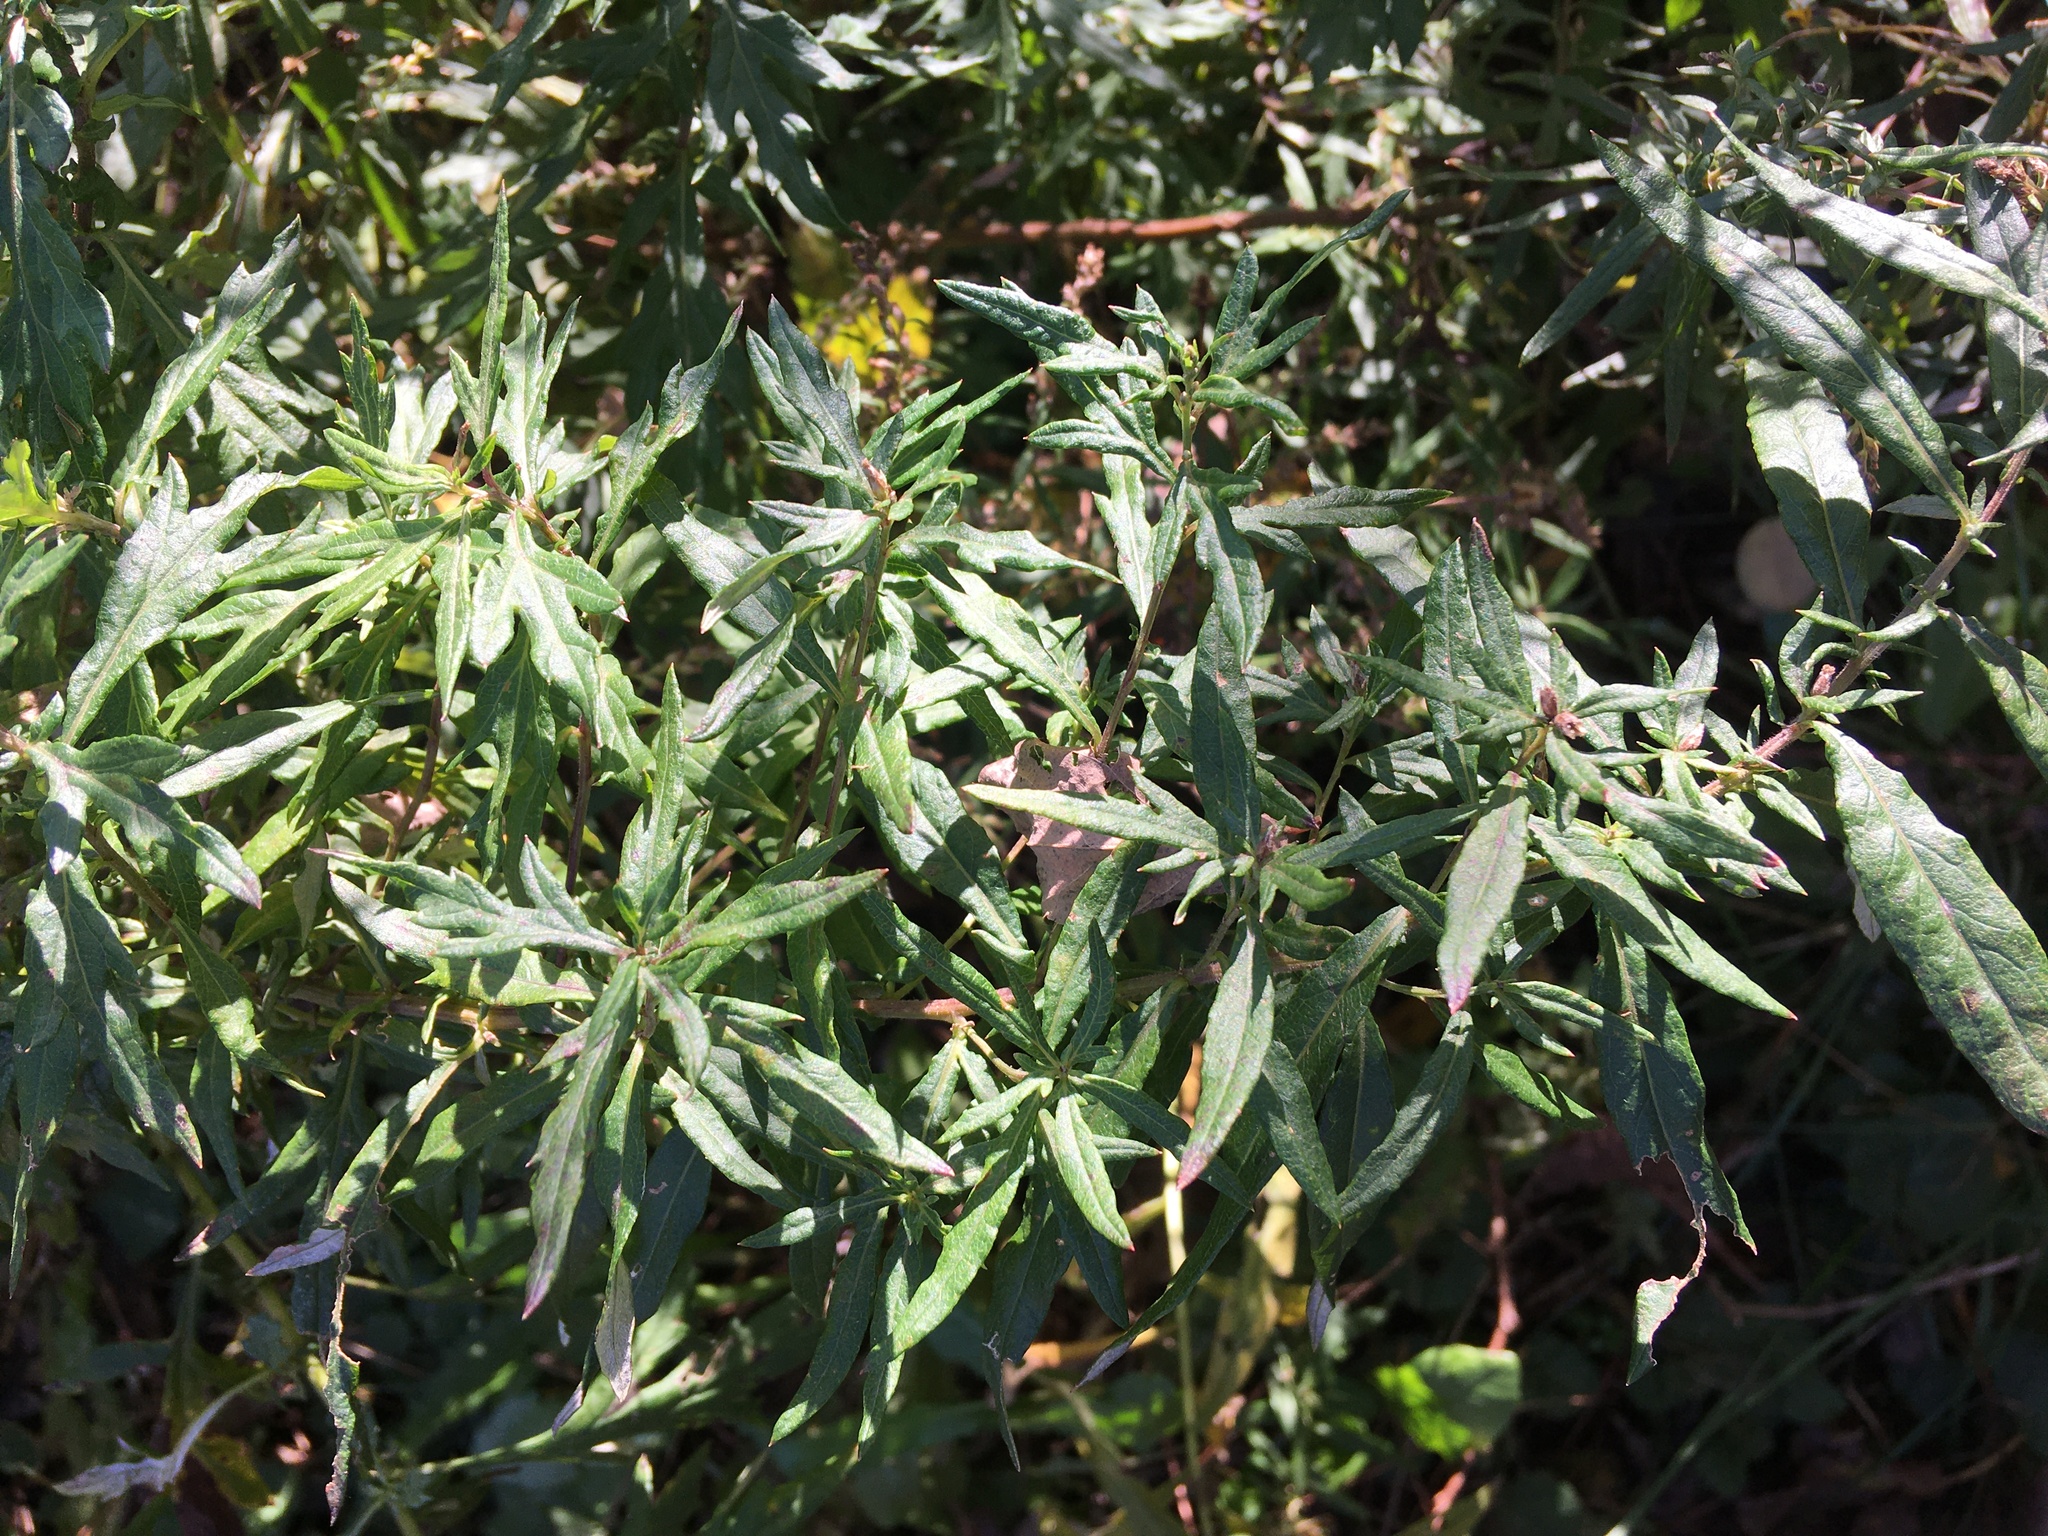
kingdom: Plantae
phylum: Tracheophyta
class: Magnoliopsida
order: Asterales
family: Asteraceae
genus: Artemisia
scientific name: Artemisia vulgaris
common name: Mugwort
